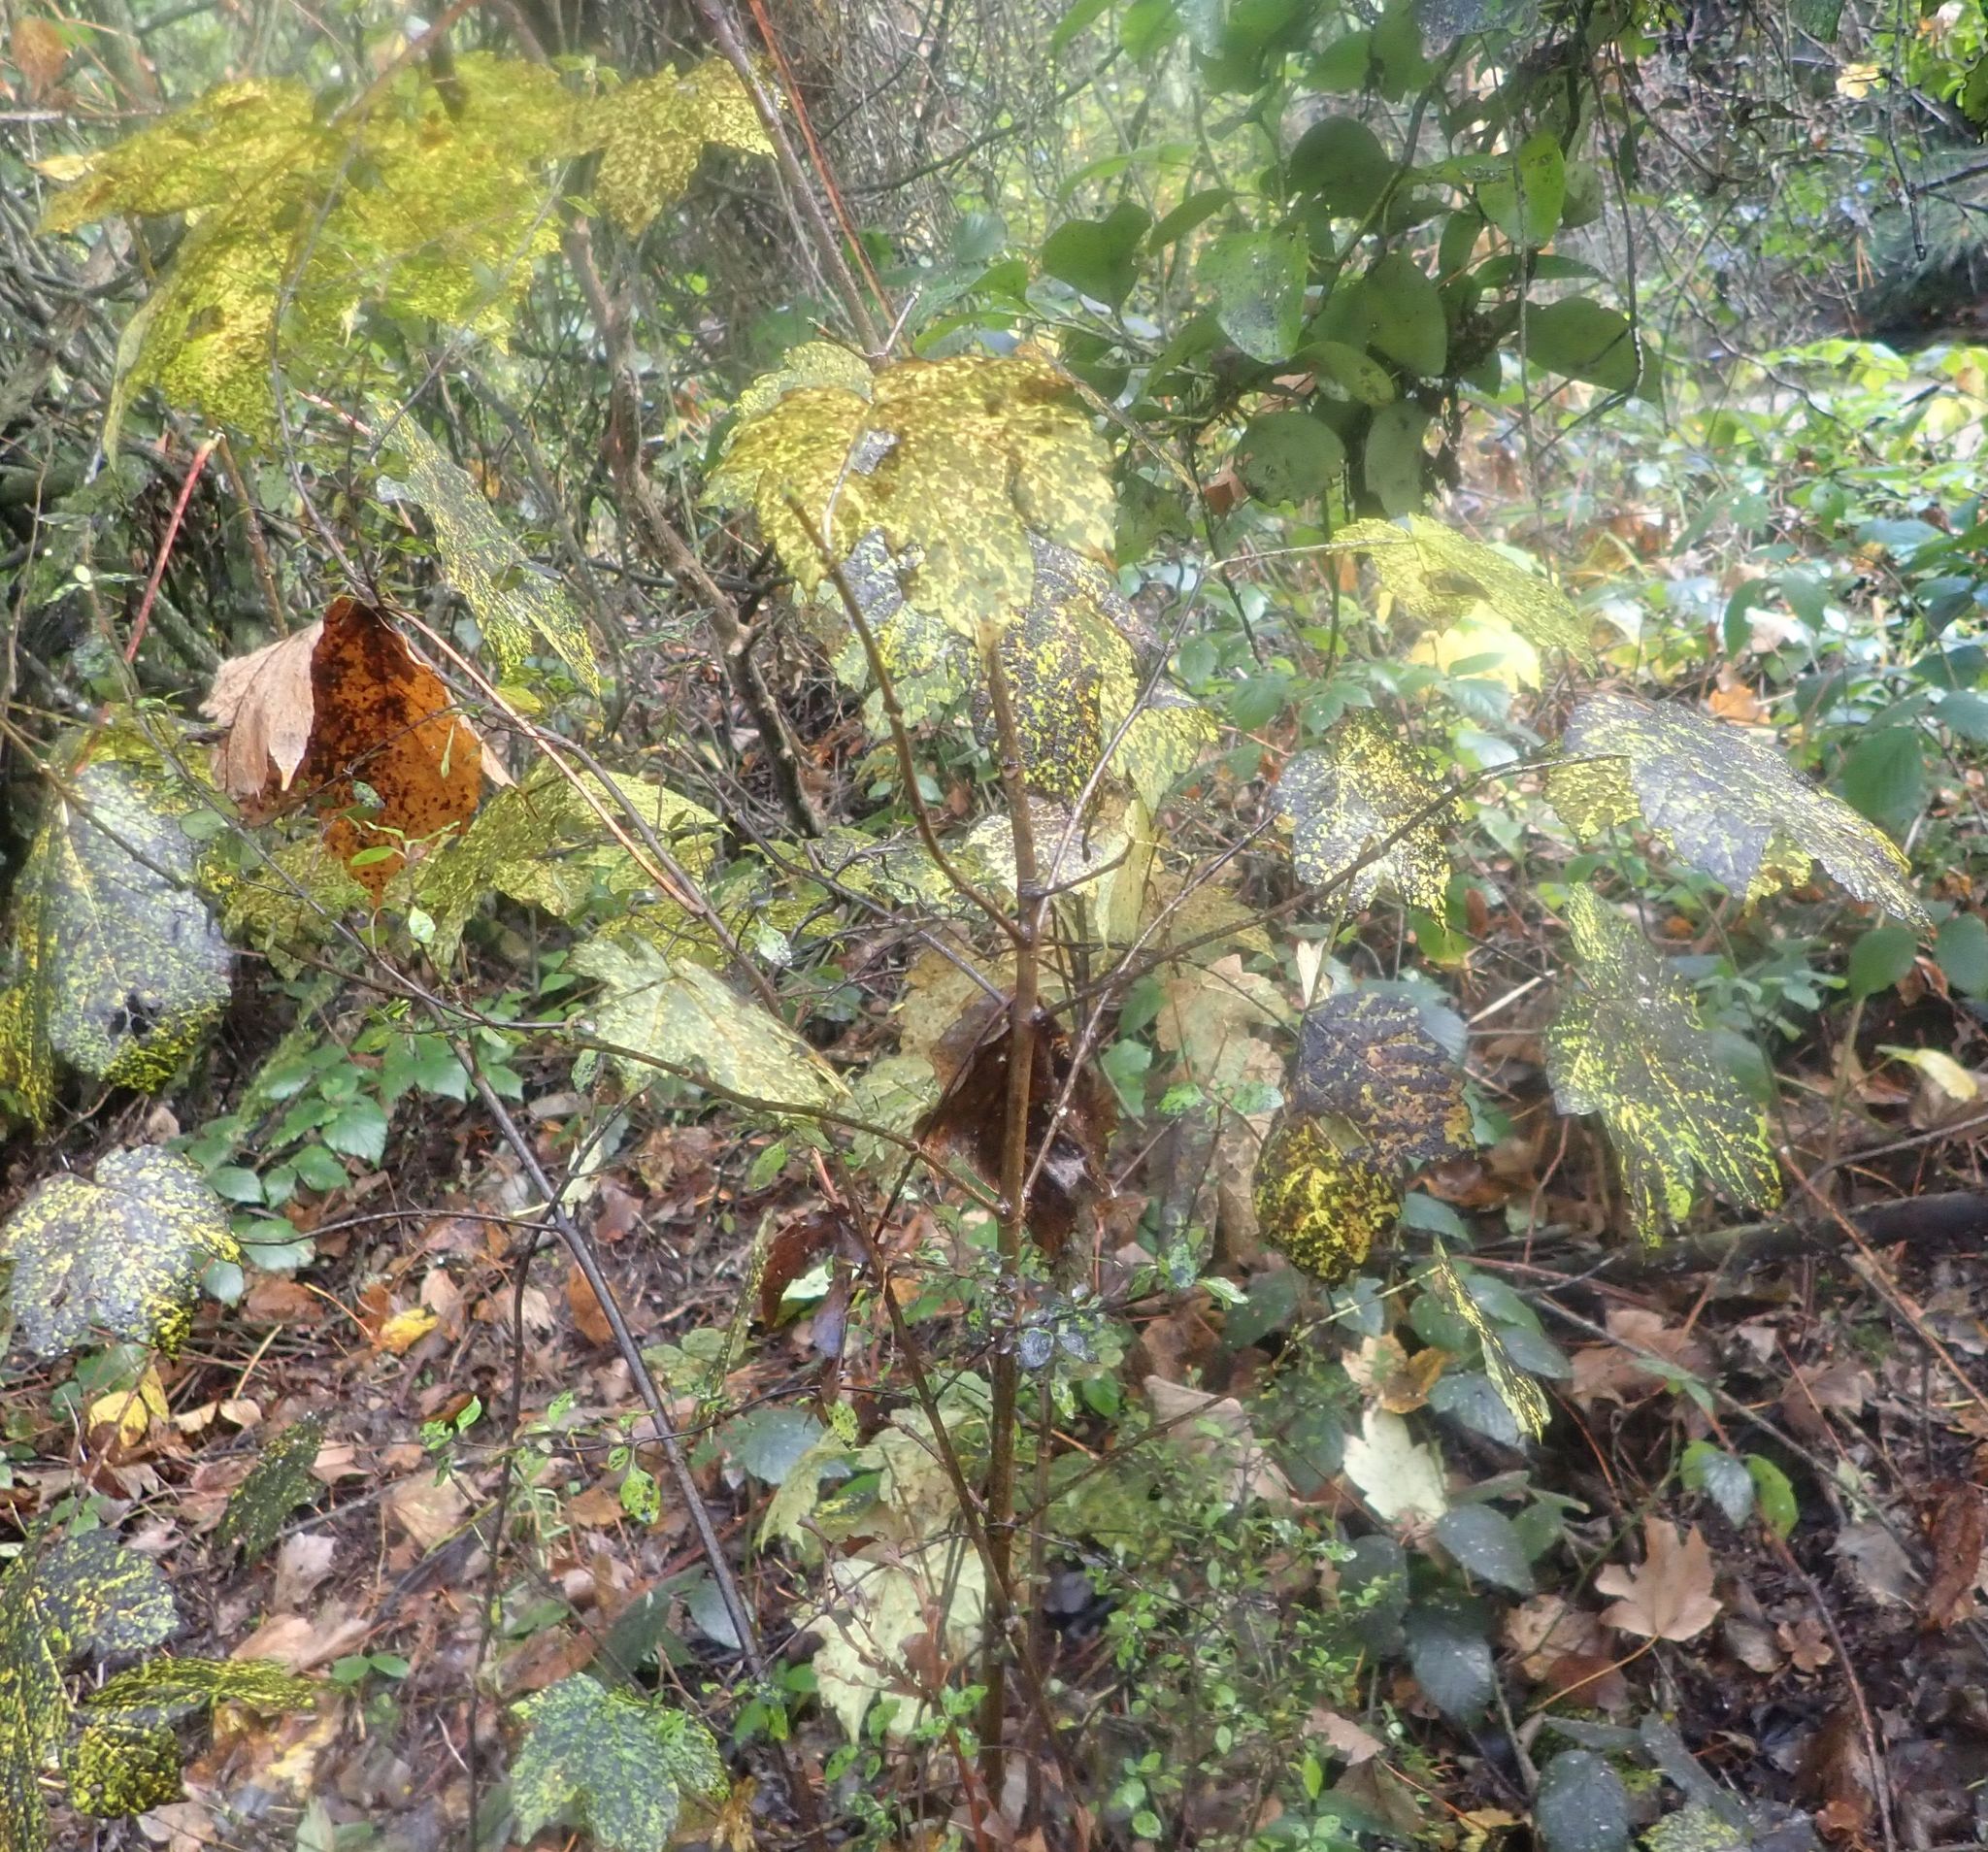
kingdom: Plantae
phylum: Tracheophyta
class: Magnoliopsida
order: Sapindales
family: Sapindaceae
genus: Acer
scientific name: Acer pseudoplatanus
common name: Sycamore
